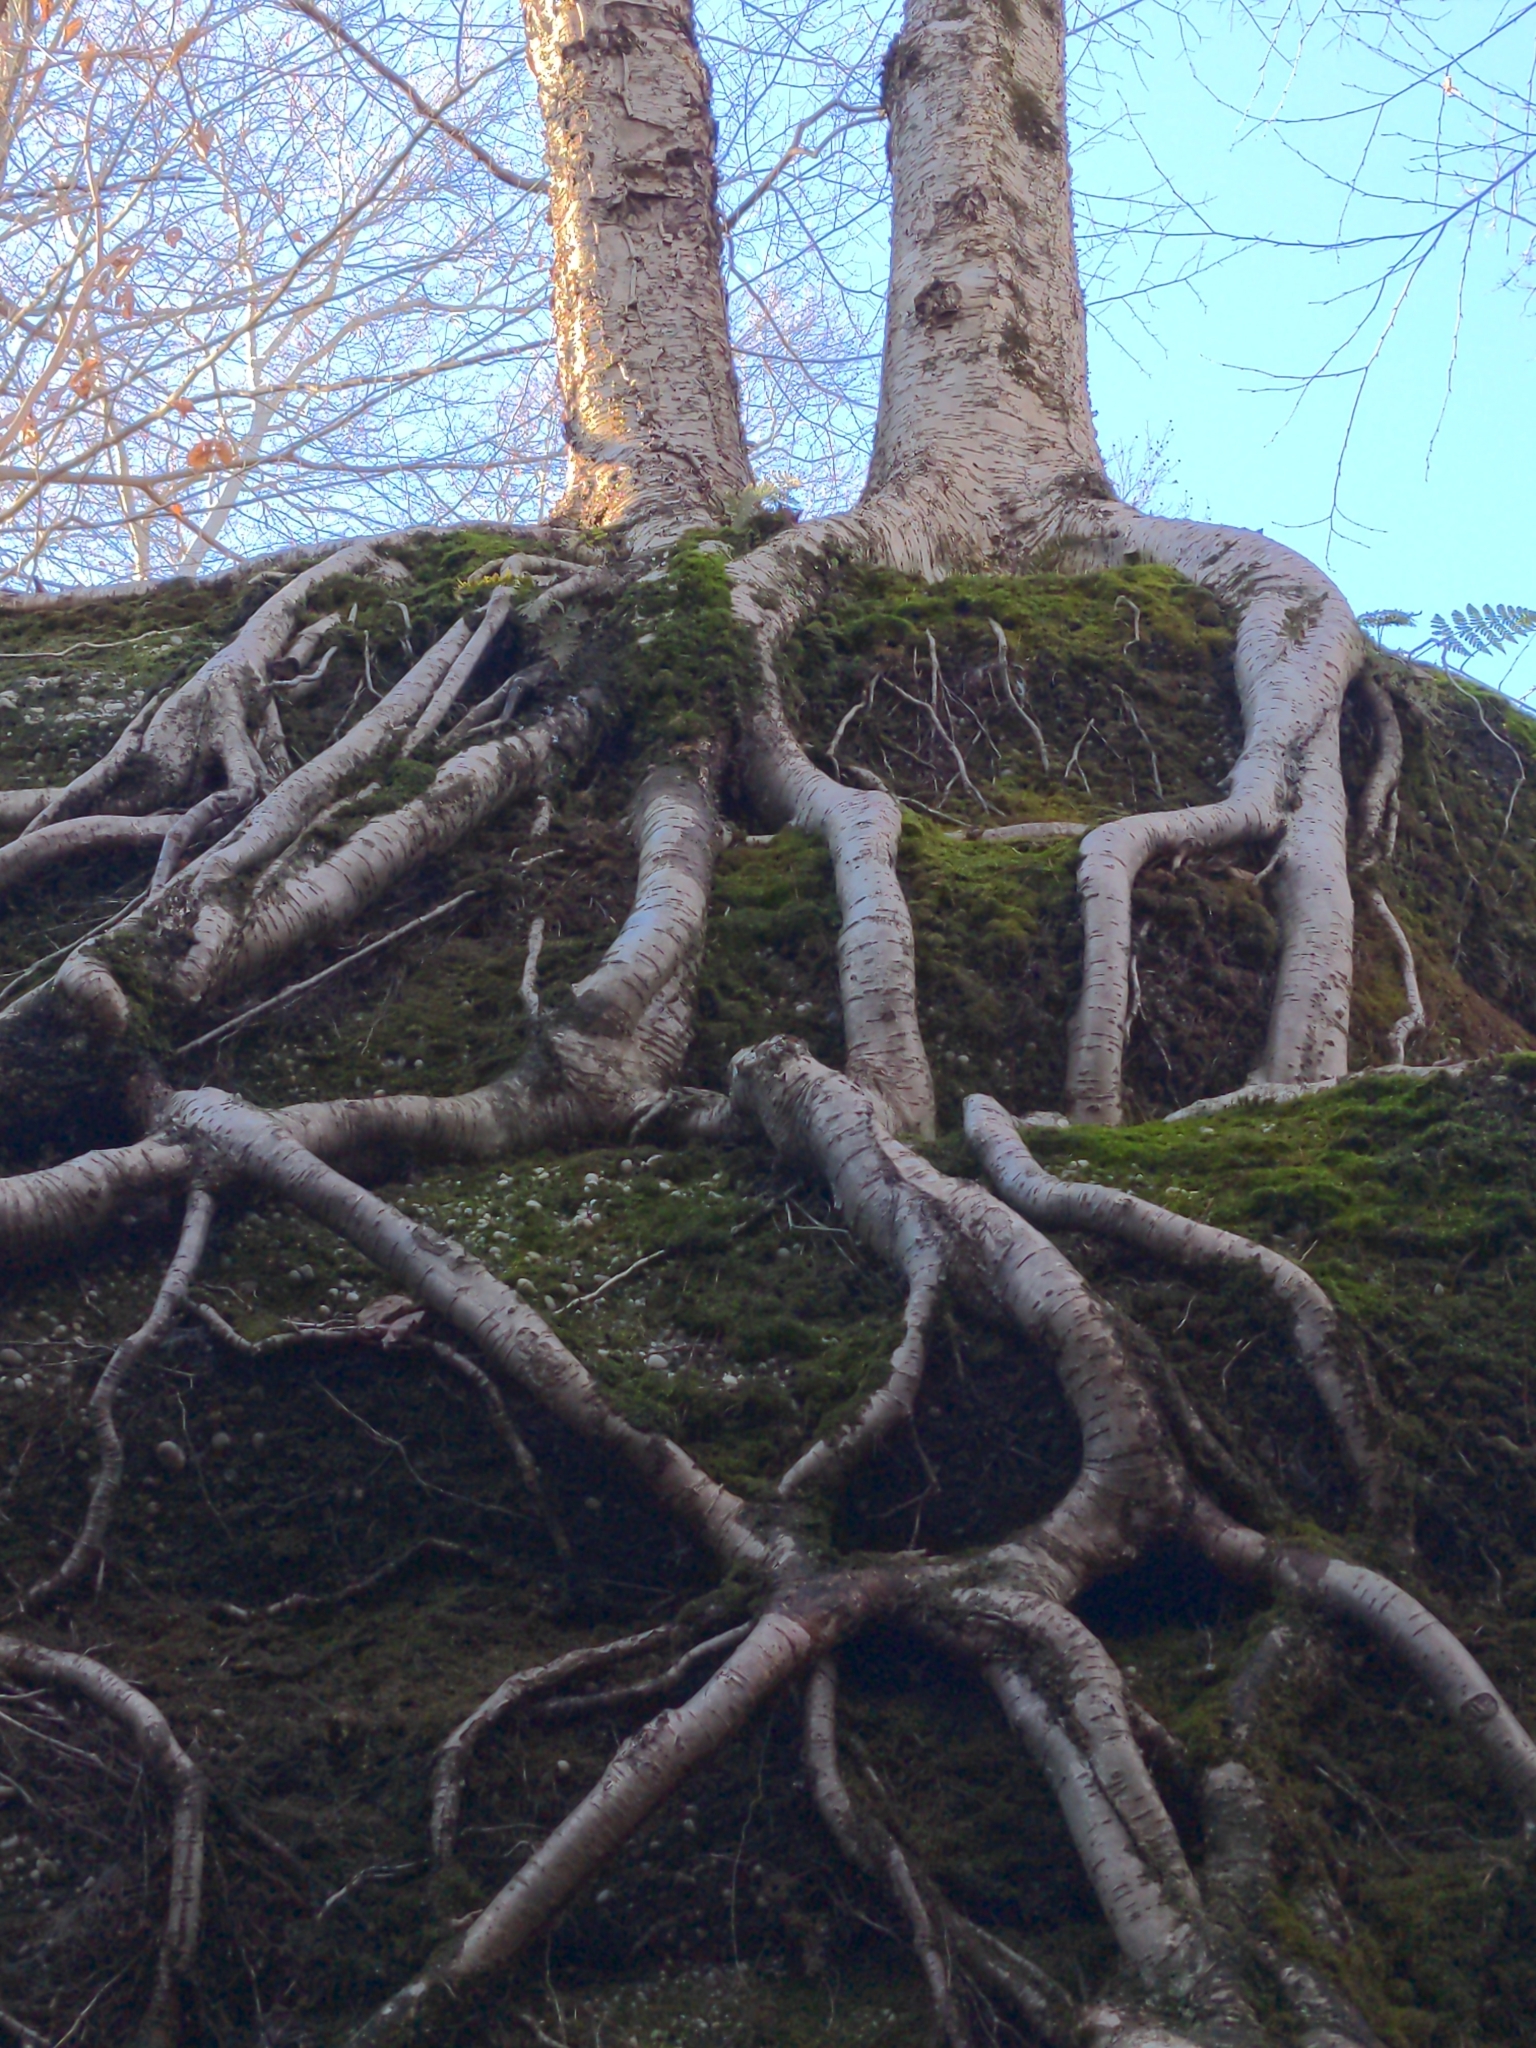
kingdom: Plantae
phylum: Tracheophyta
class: Magnoliopsida
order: Fagales
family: Betulaceae
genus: Betula
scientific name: Betula alleghaniensis
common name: Yellow birch
